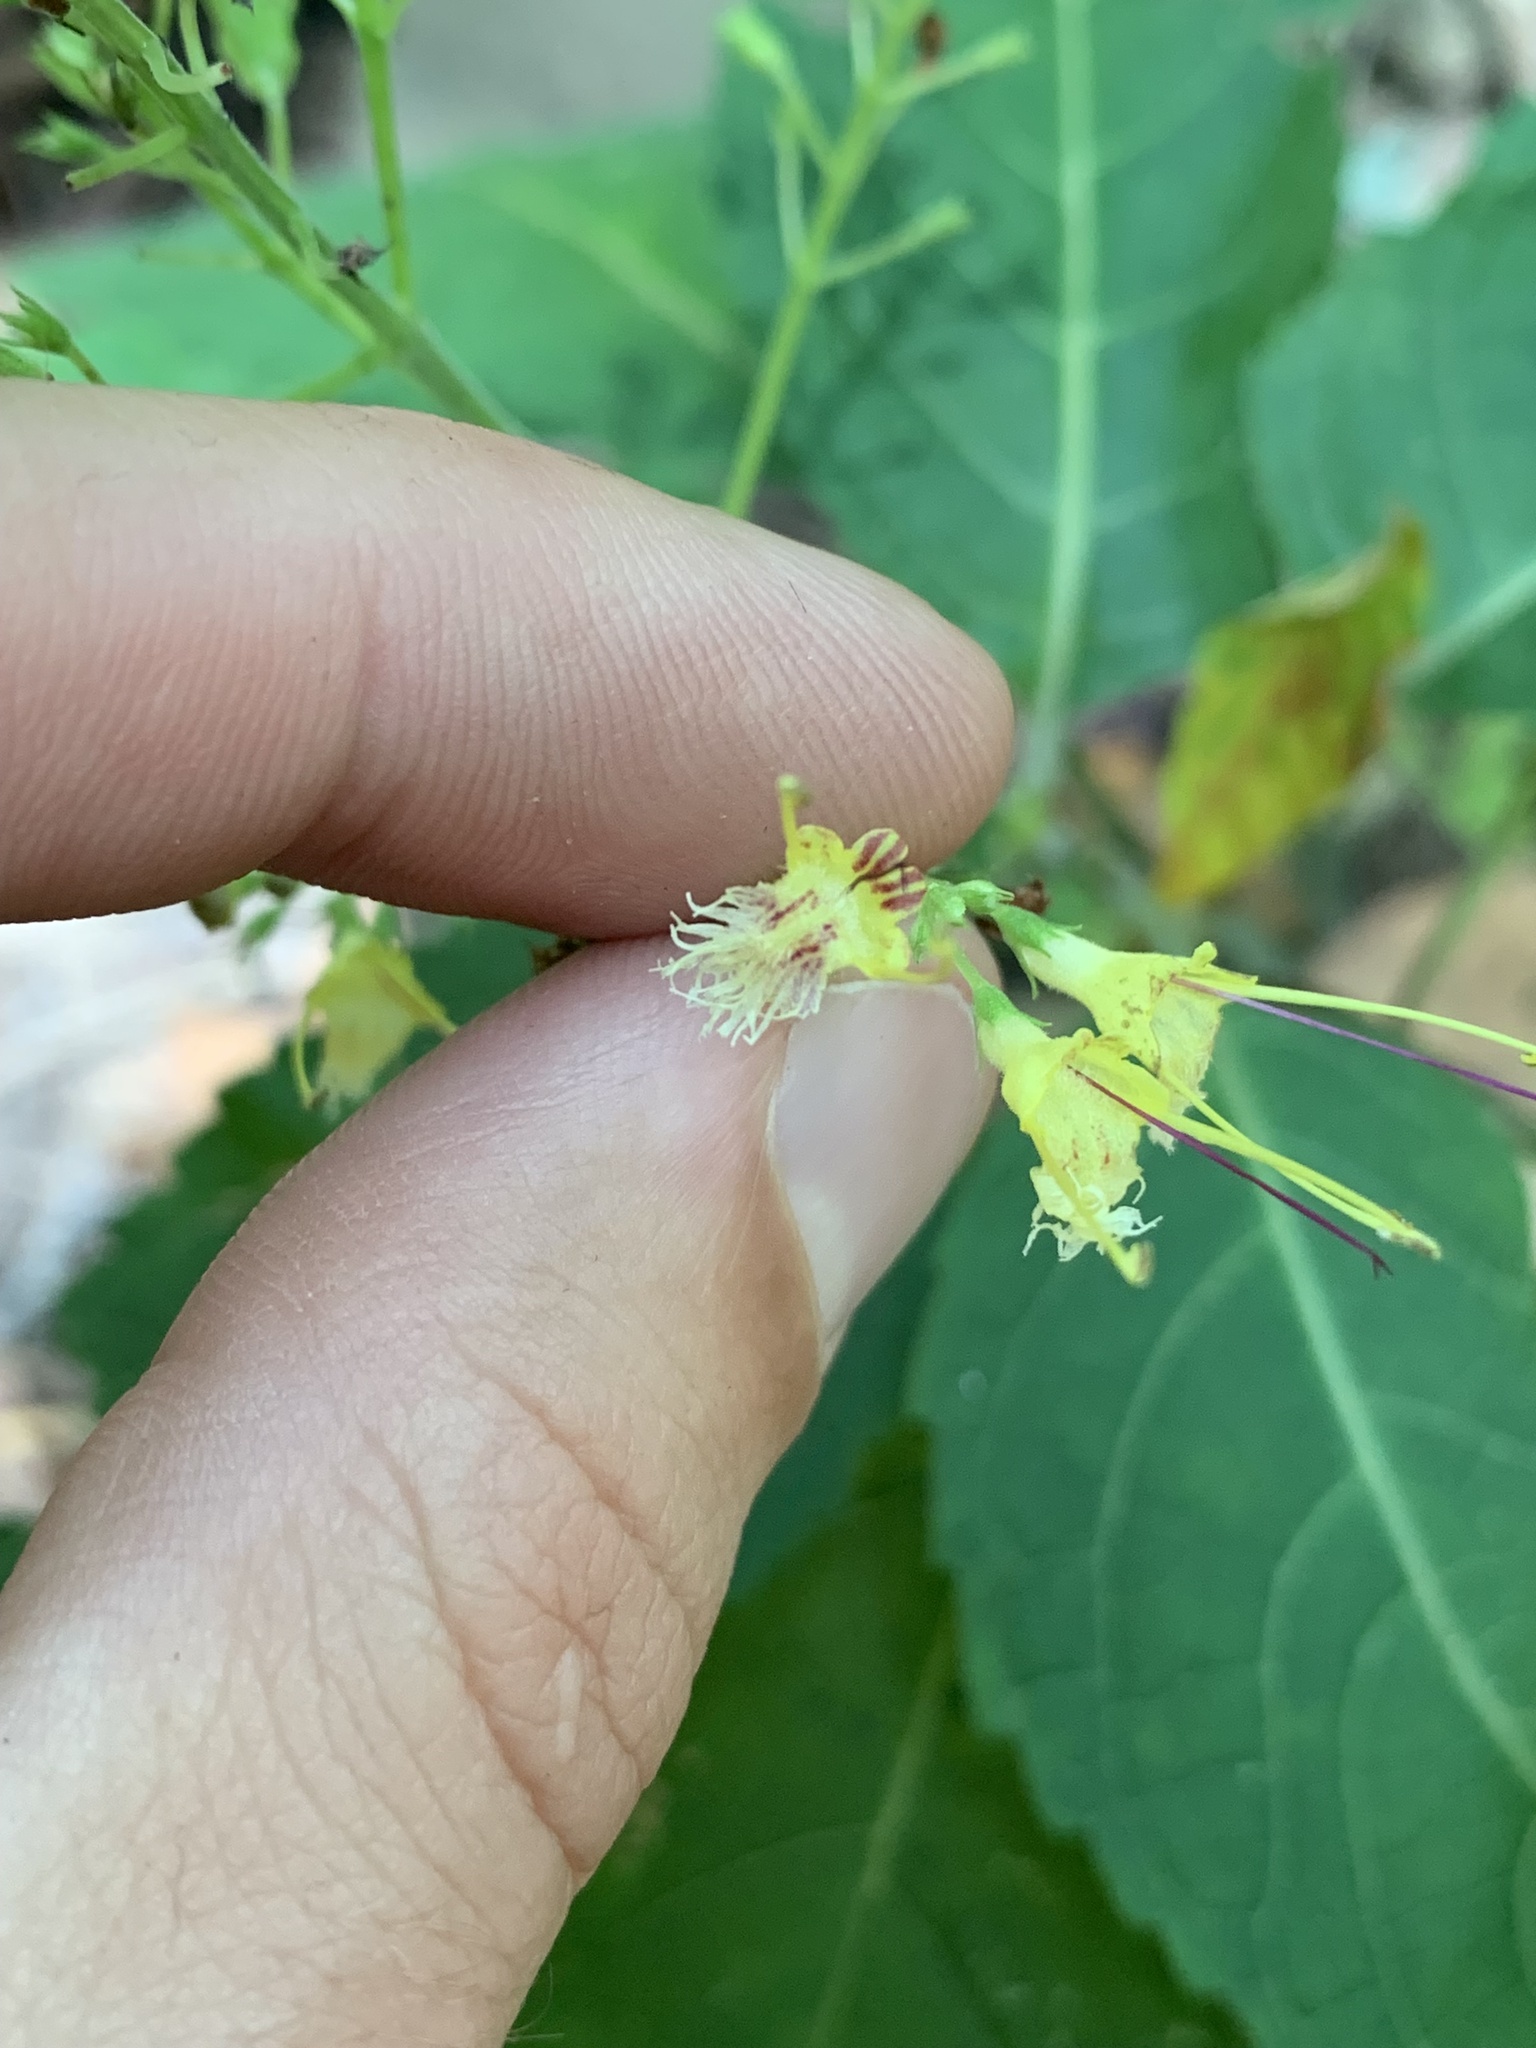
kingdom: Plantae
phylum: Tracheophyta
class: Magnoliopsida
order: Lamiales
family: Lamiaceae
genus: Collinsonia
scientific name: Collinsonia canadensis
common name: Northern horsebalm
